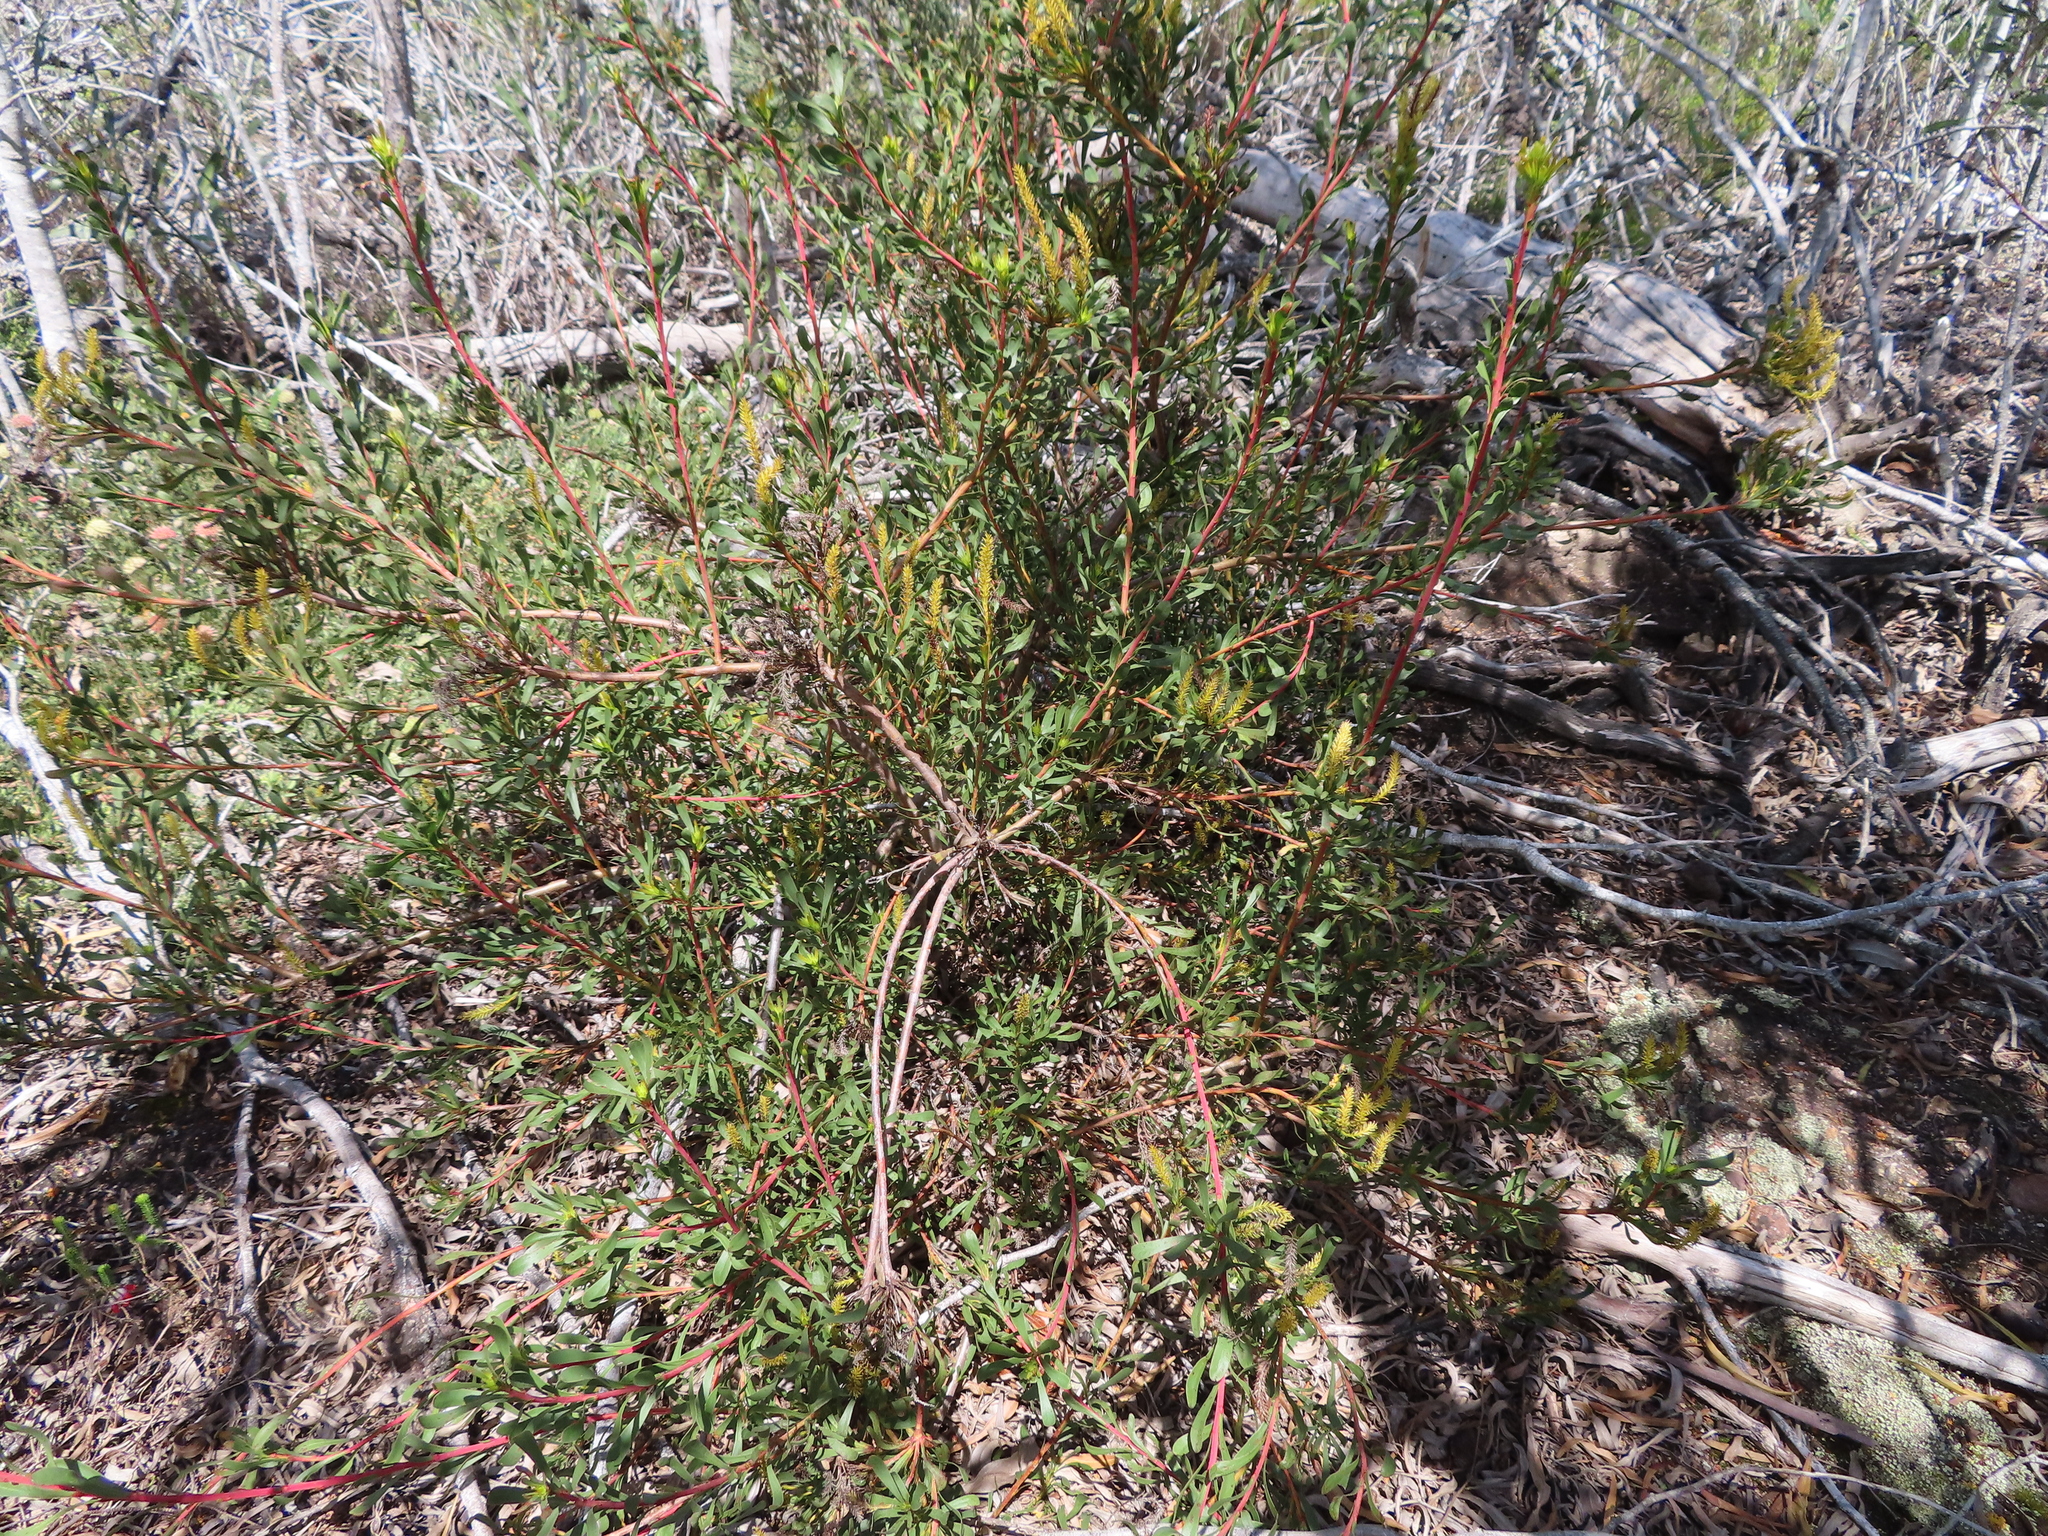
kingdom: Plantae
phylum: Tracheophyta
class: Magnoliopsida
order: Proteales
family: Proteaceae
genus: Aulax
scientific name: Aulax umbellata
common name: Broad-leaf featherbush
